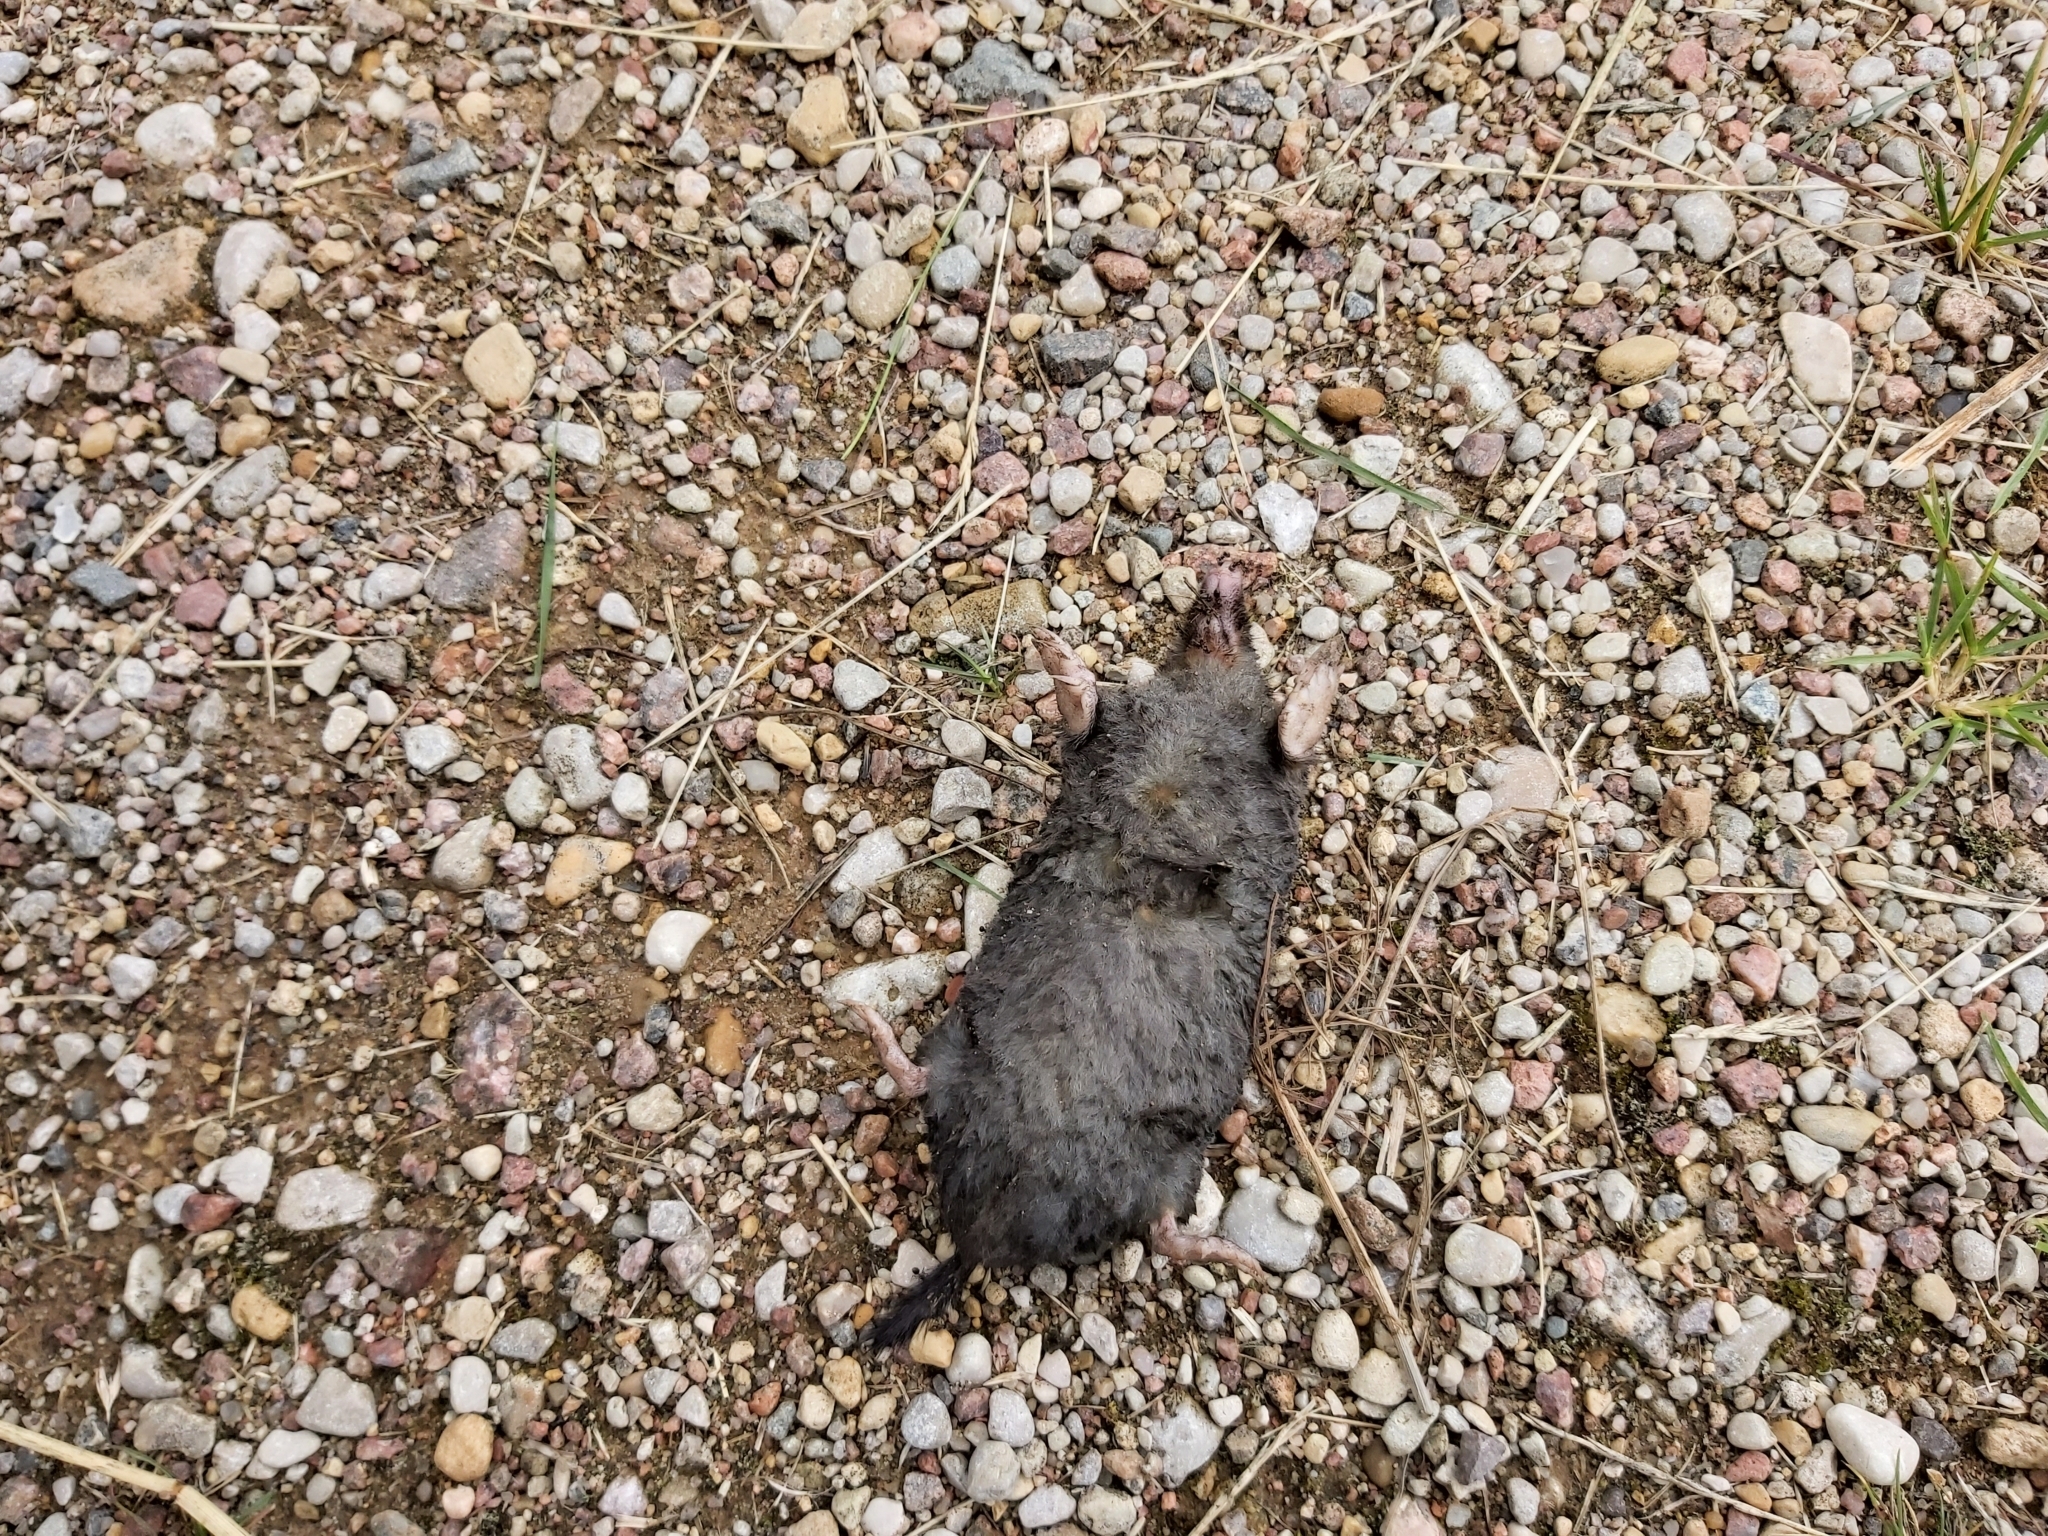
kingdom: Animalia
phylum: Chordata
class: Mammalia
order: Soricomorpha
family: Talpidae
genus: Talpa
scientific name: Talpa europaea
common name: European mole
